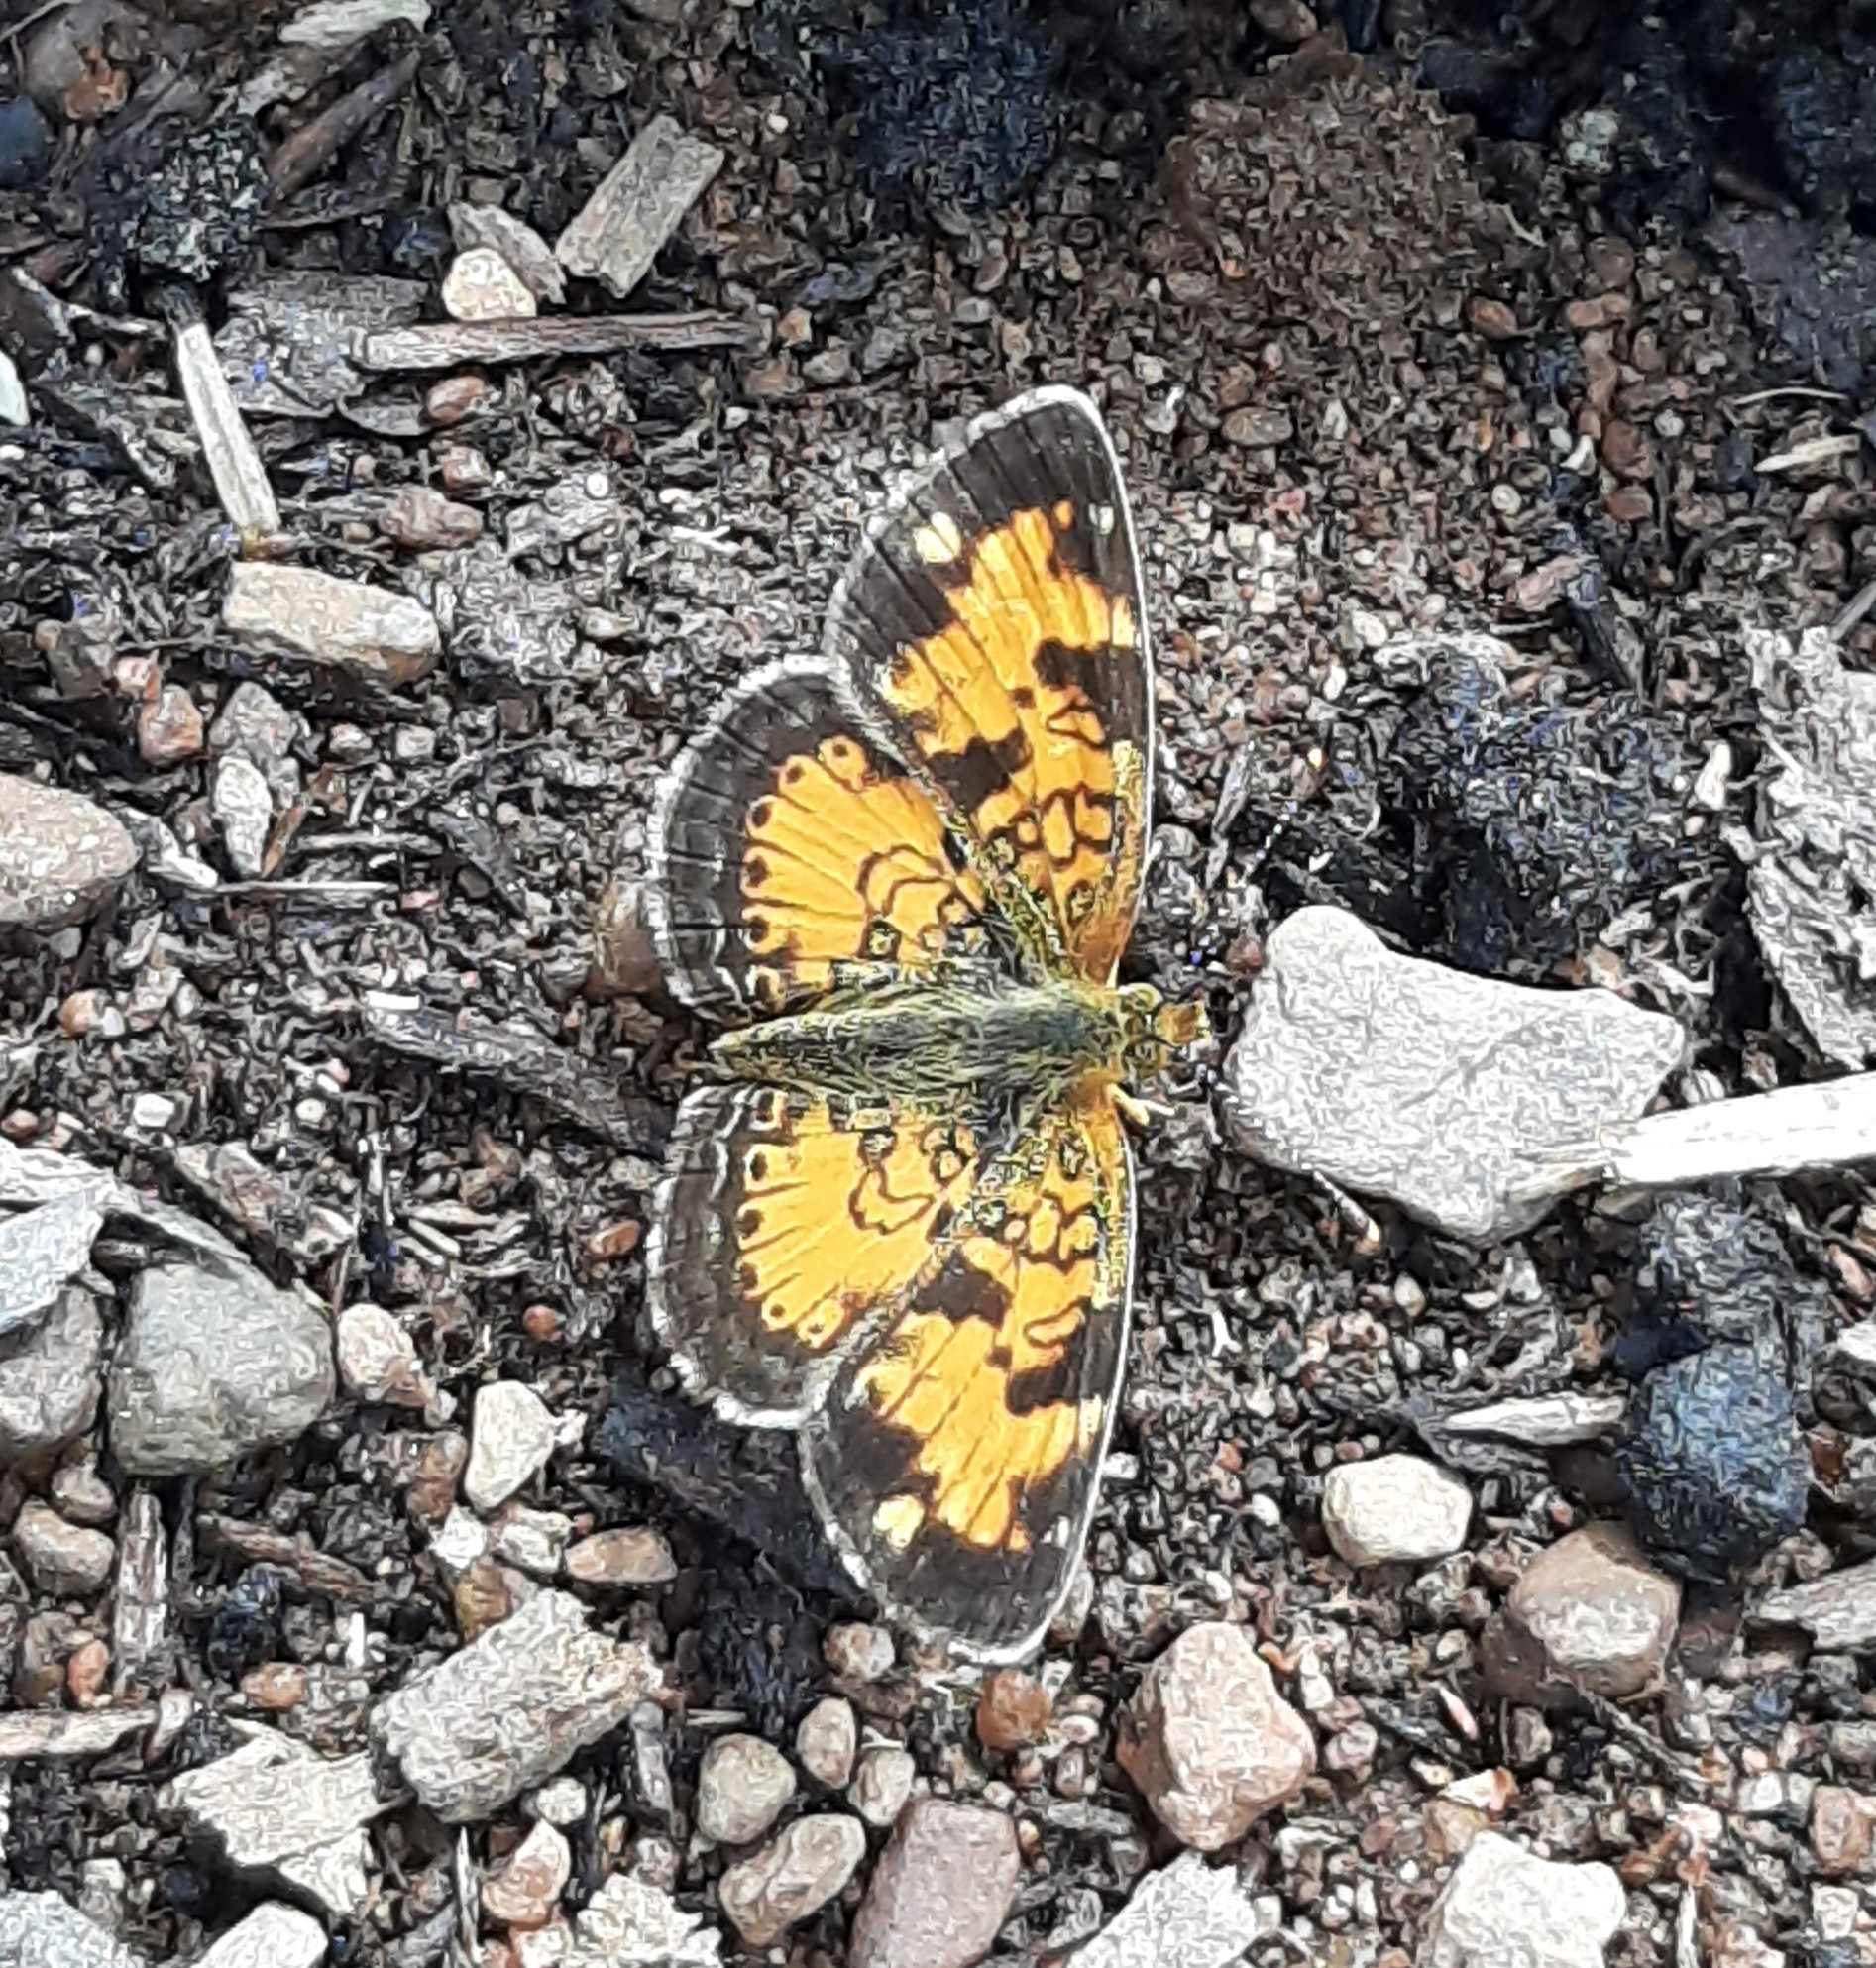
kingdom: Animalia
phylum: Arthropoda
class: Insecta
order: Lepidoptera
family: Nymphalidae
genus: Phyciodes
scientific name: Phyciodes tharos
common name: Pearl crescent
